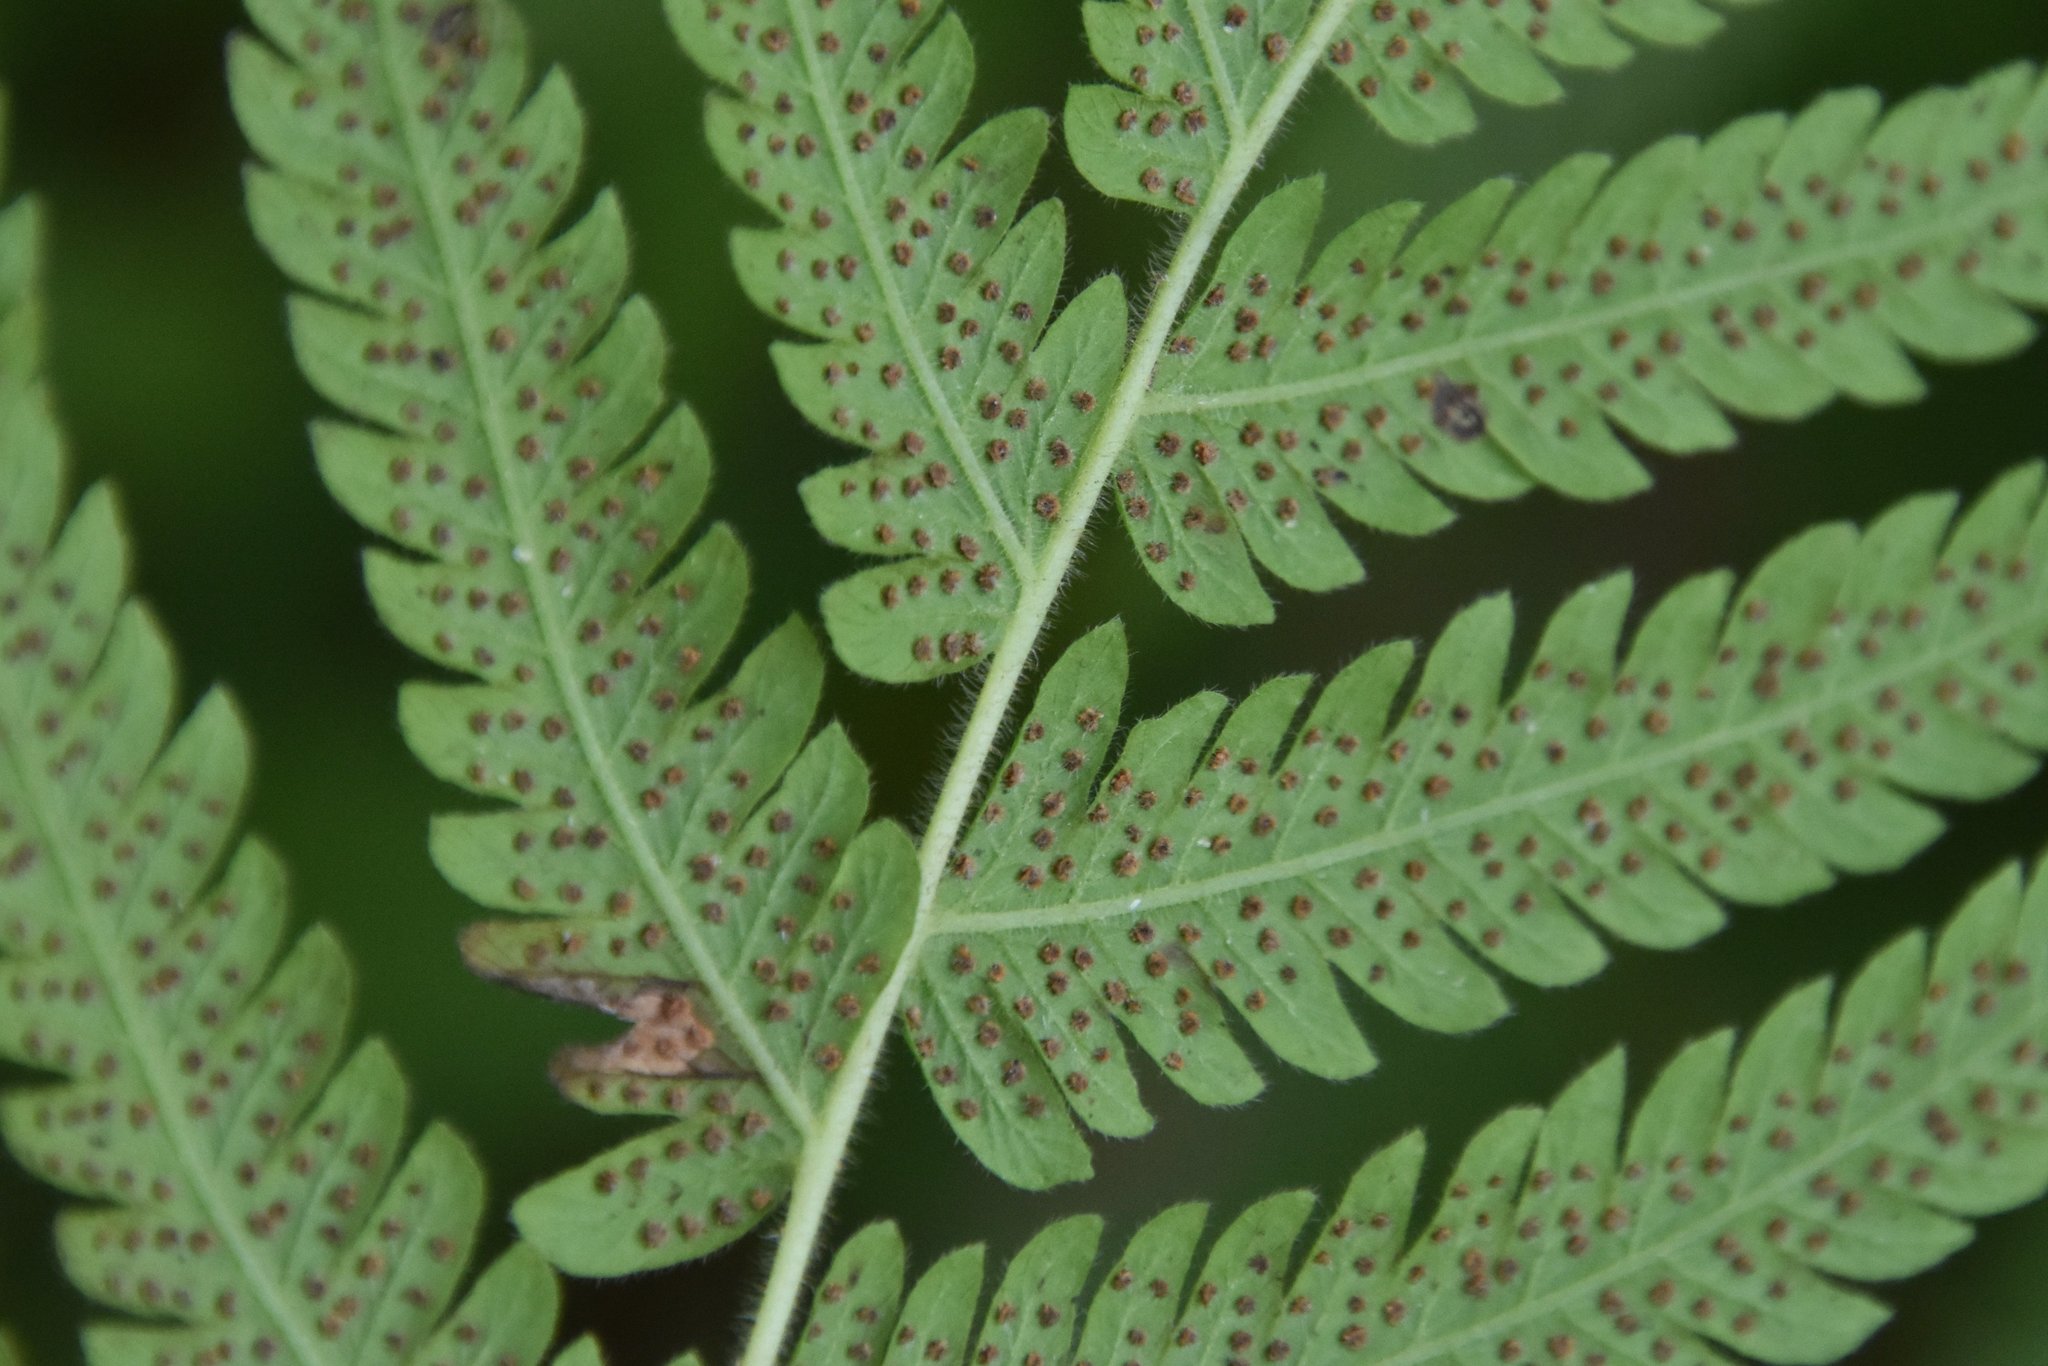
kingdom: Plantae
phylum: Tracheophyta
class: Polypodiopsida
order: Polypodiales
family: Thelypteridaceae
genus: Pelazoneuron
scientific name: Pelazoneuron kunthii
